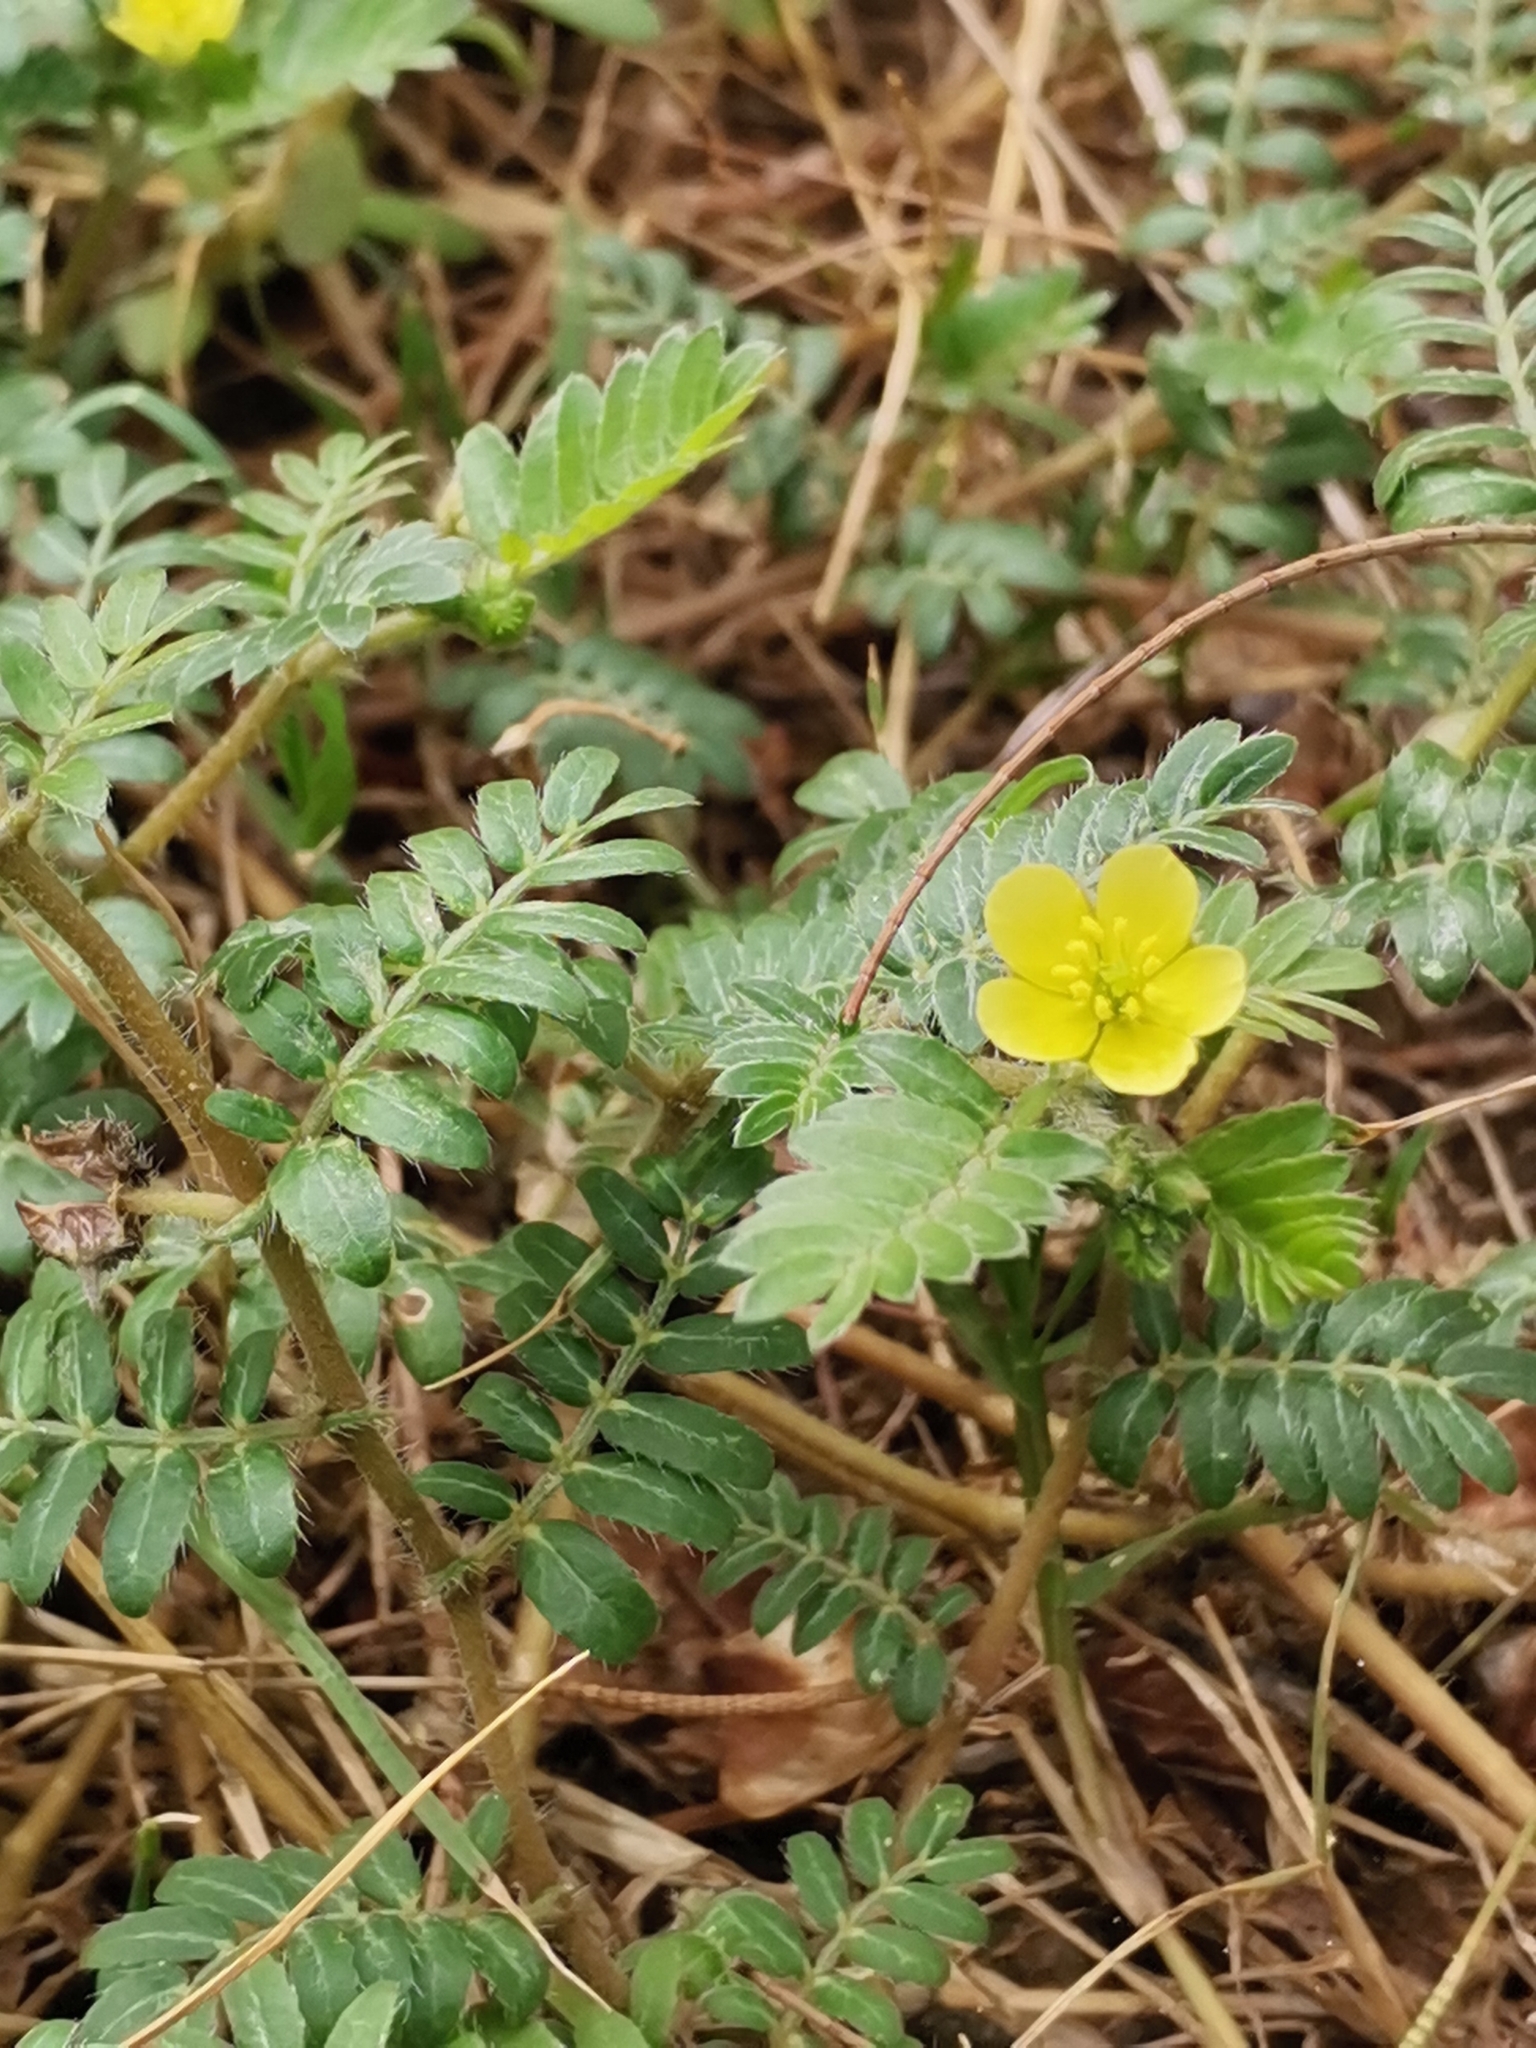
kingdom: Plantae
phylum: Tracheophyta
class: Magnoliopsida
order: Zygophyllales
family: Zygophyllaceae
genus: Tribulus
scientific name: Tribulus terrestris
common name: Puncturevine
